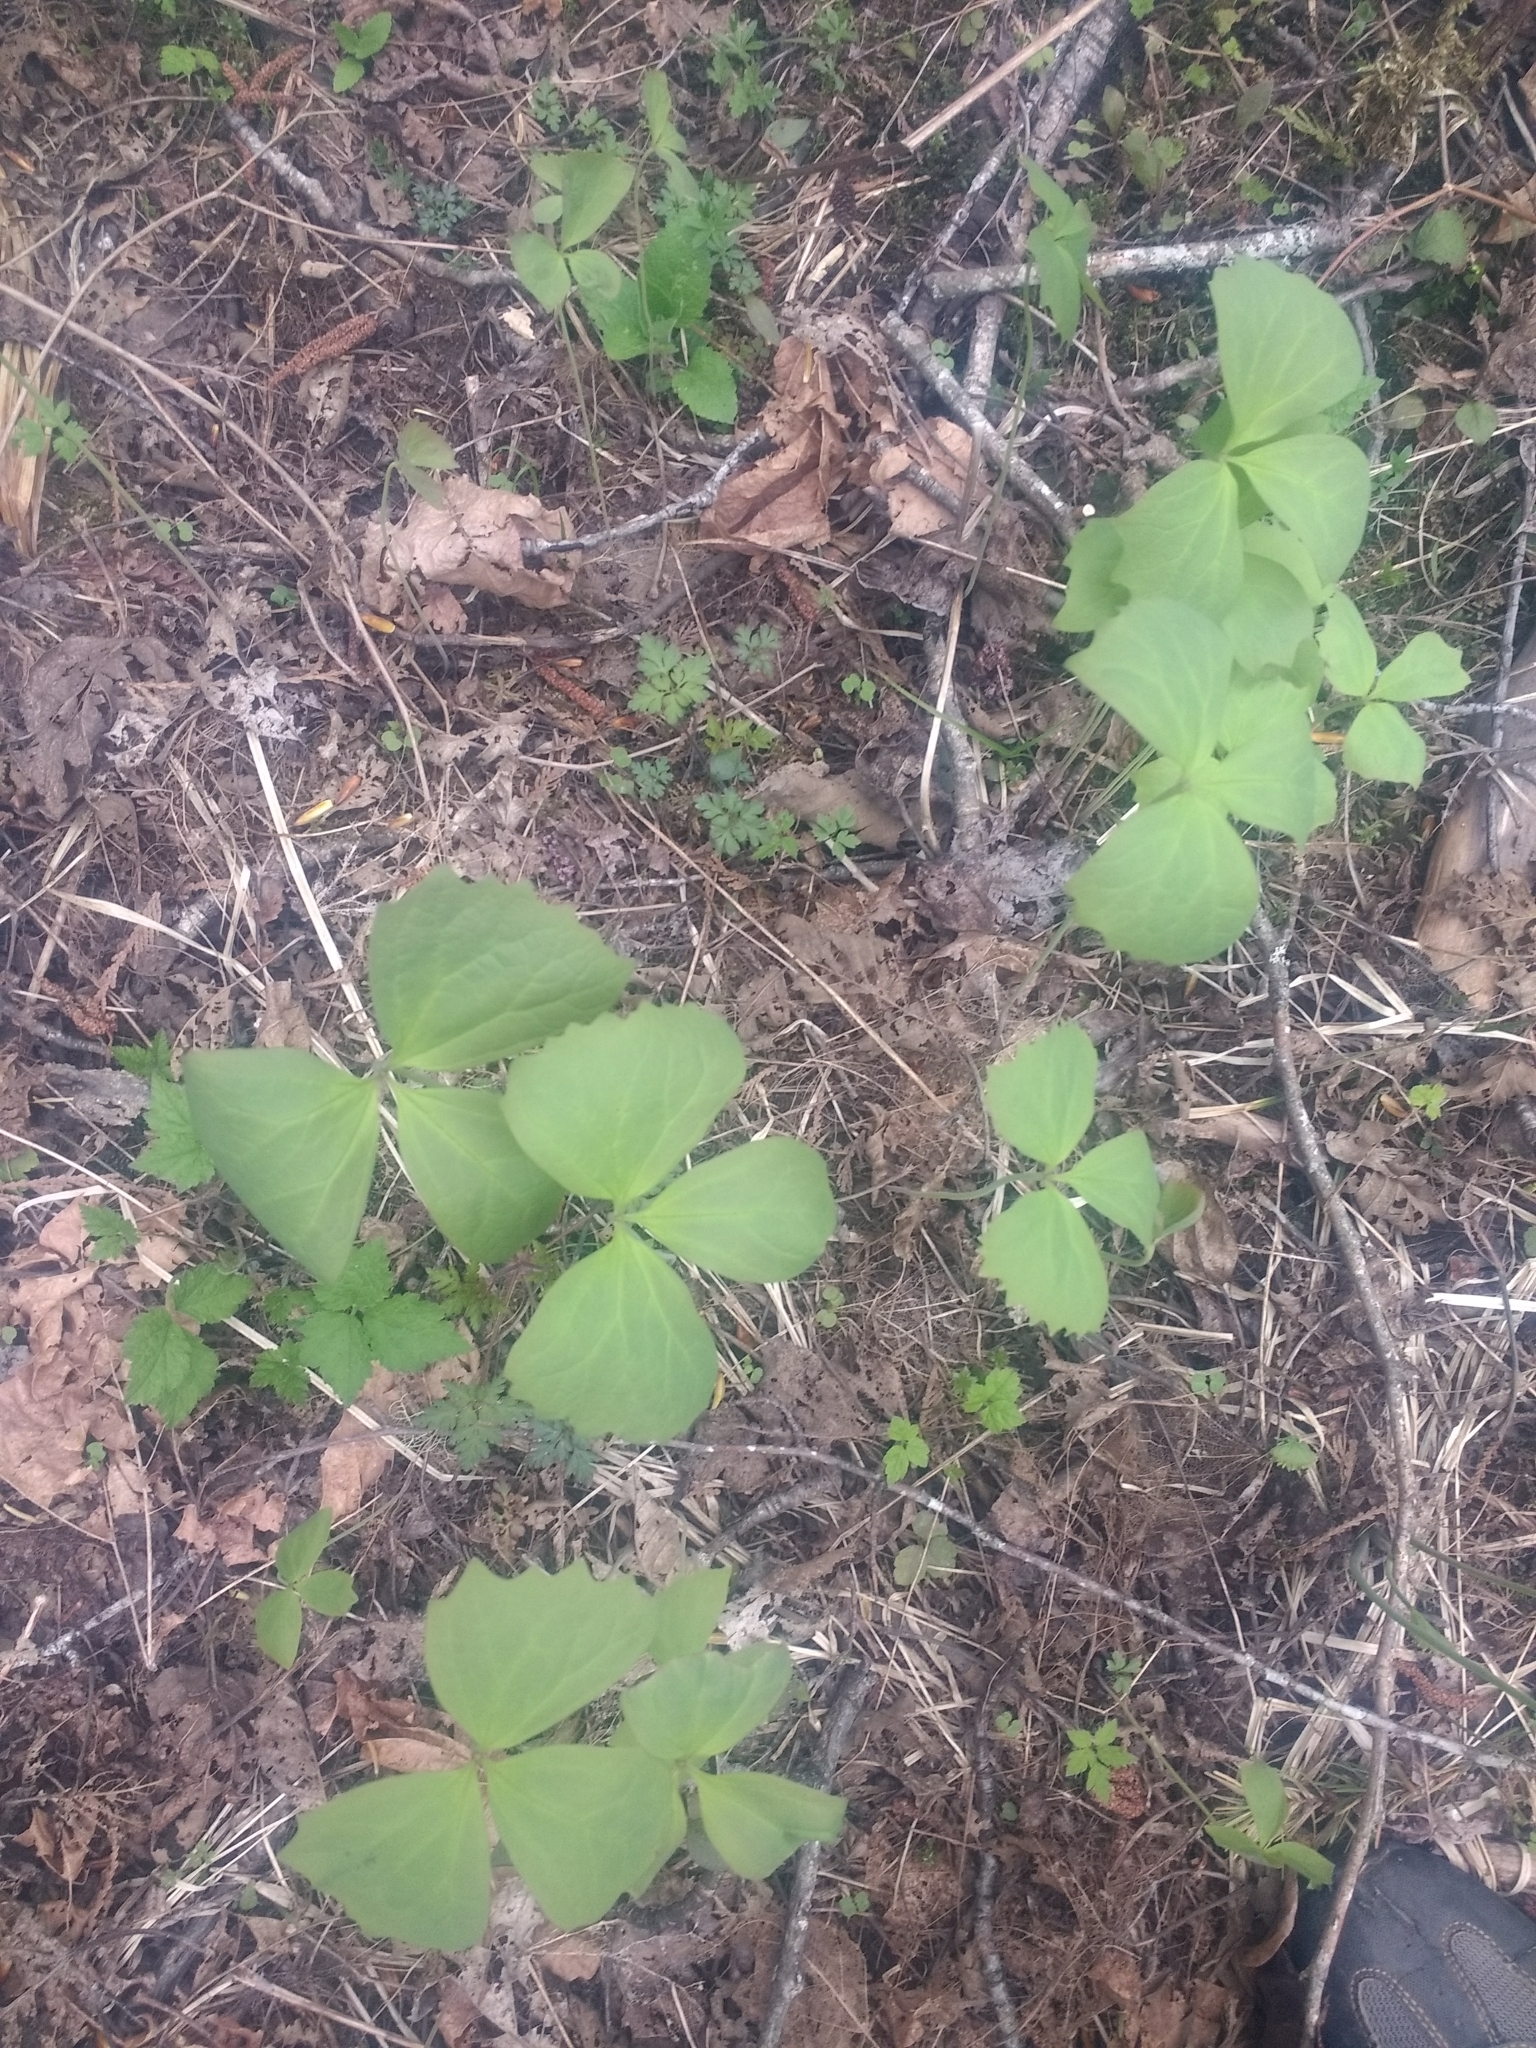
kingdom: Plantae
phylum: Tracheophyta
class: Magnoliopsida
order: Ranunculales
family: Berberidaceae
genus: Achlys
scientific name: Achlys triphylla
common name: Vanilla-leaf
